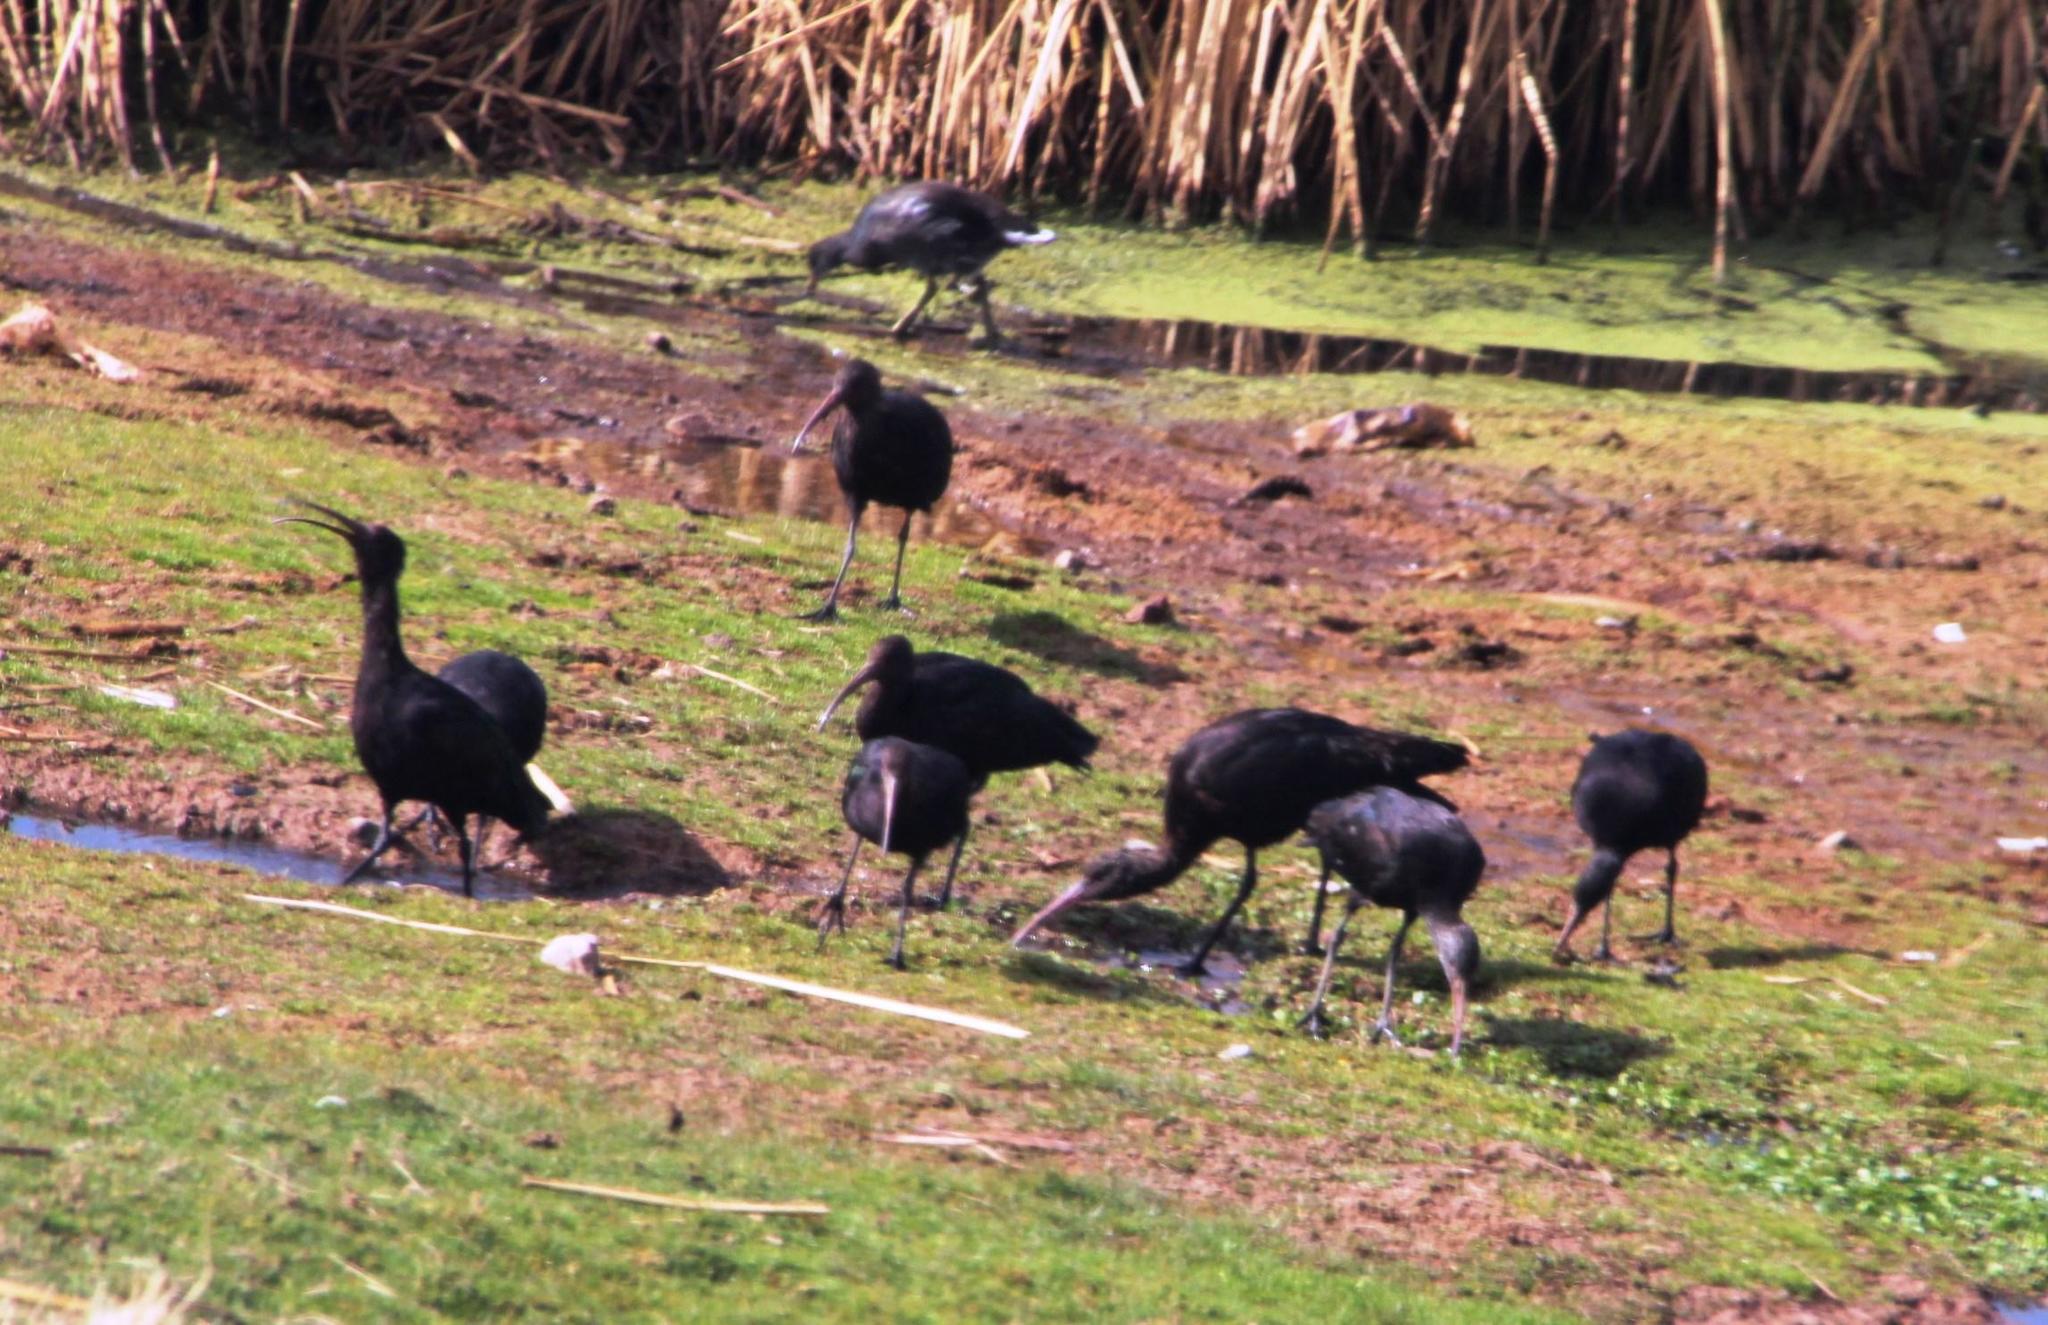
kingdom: Animalia
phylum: Chordata
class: Aves
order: Pelecaniformes
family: Threskiornithidae
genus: Plegadis
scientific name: Plegadis ridgwayi
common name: Puna ibis
